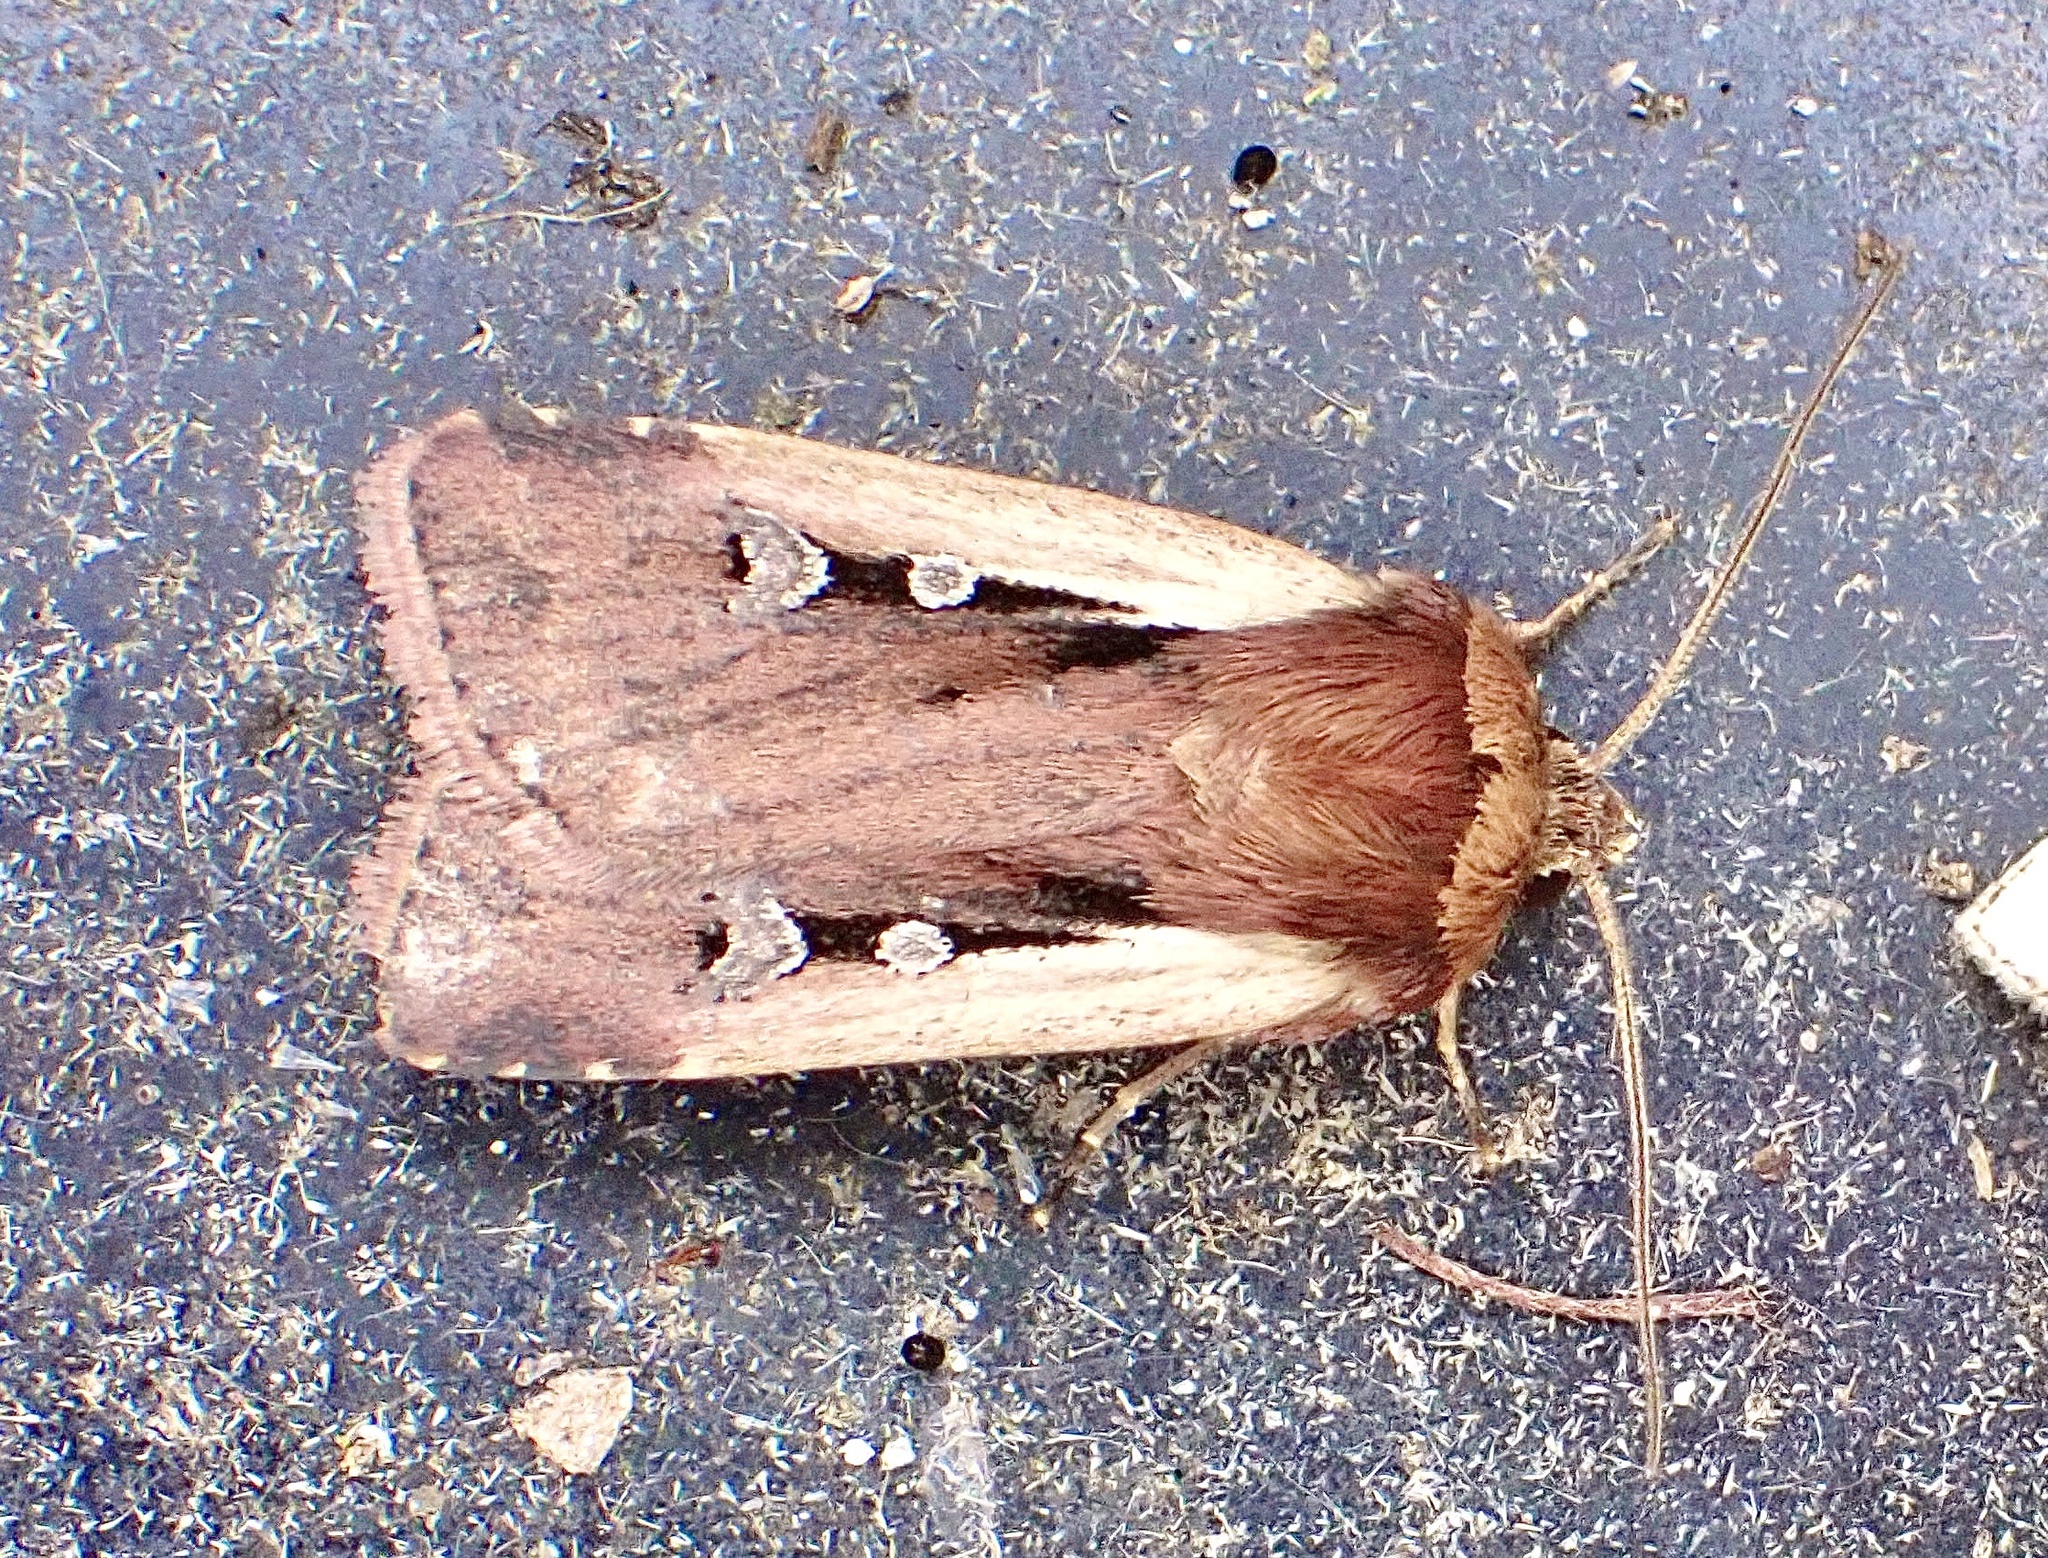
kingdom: Animalia
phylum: Arthropoda
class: Insecta
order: Lepidoptera
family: Noctuidae
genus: Ochropleura
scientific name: Ochropleura plecta
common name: Flame shoulder
